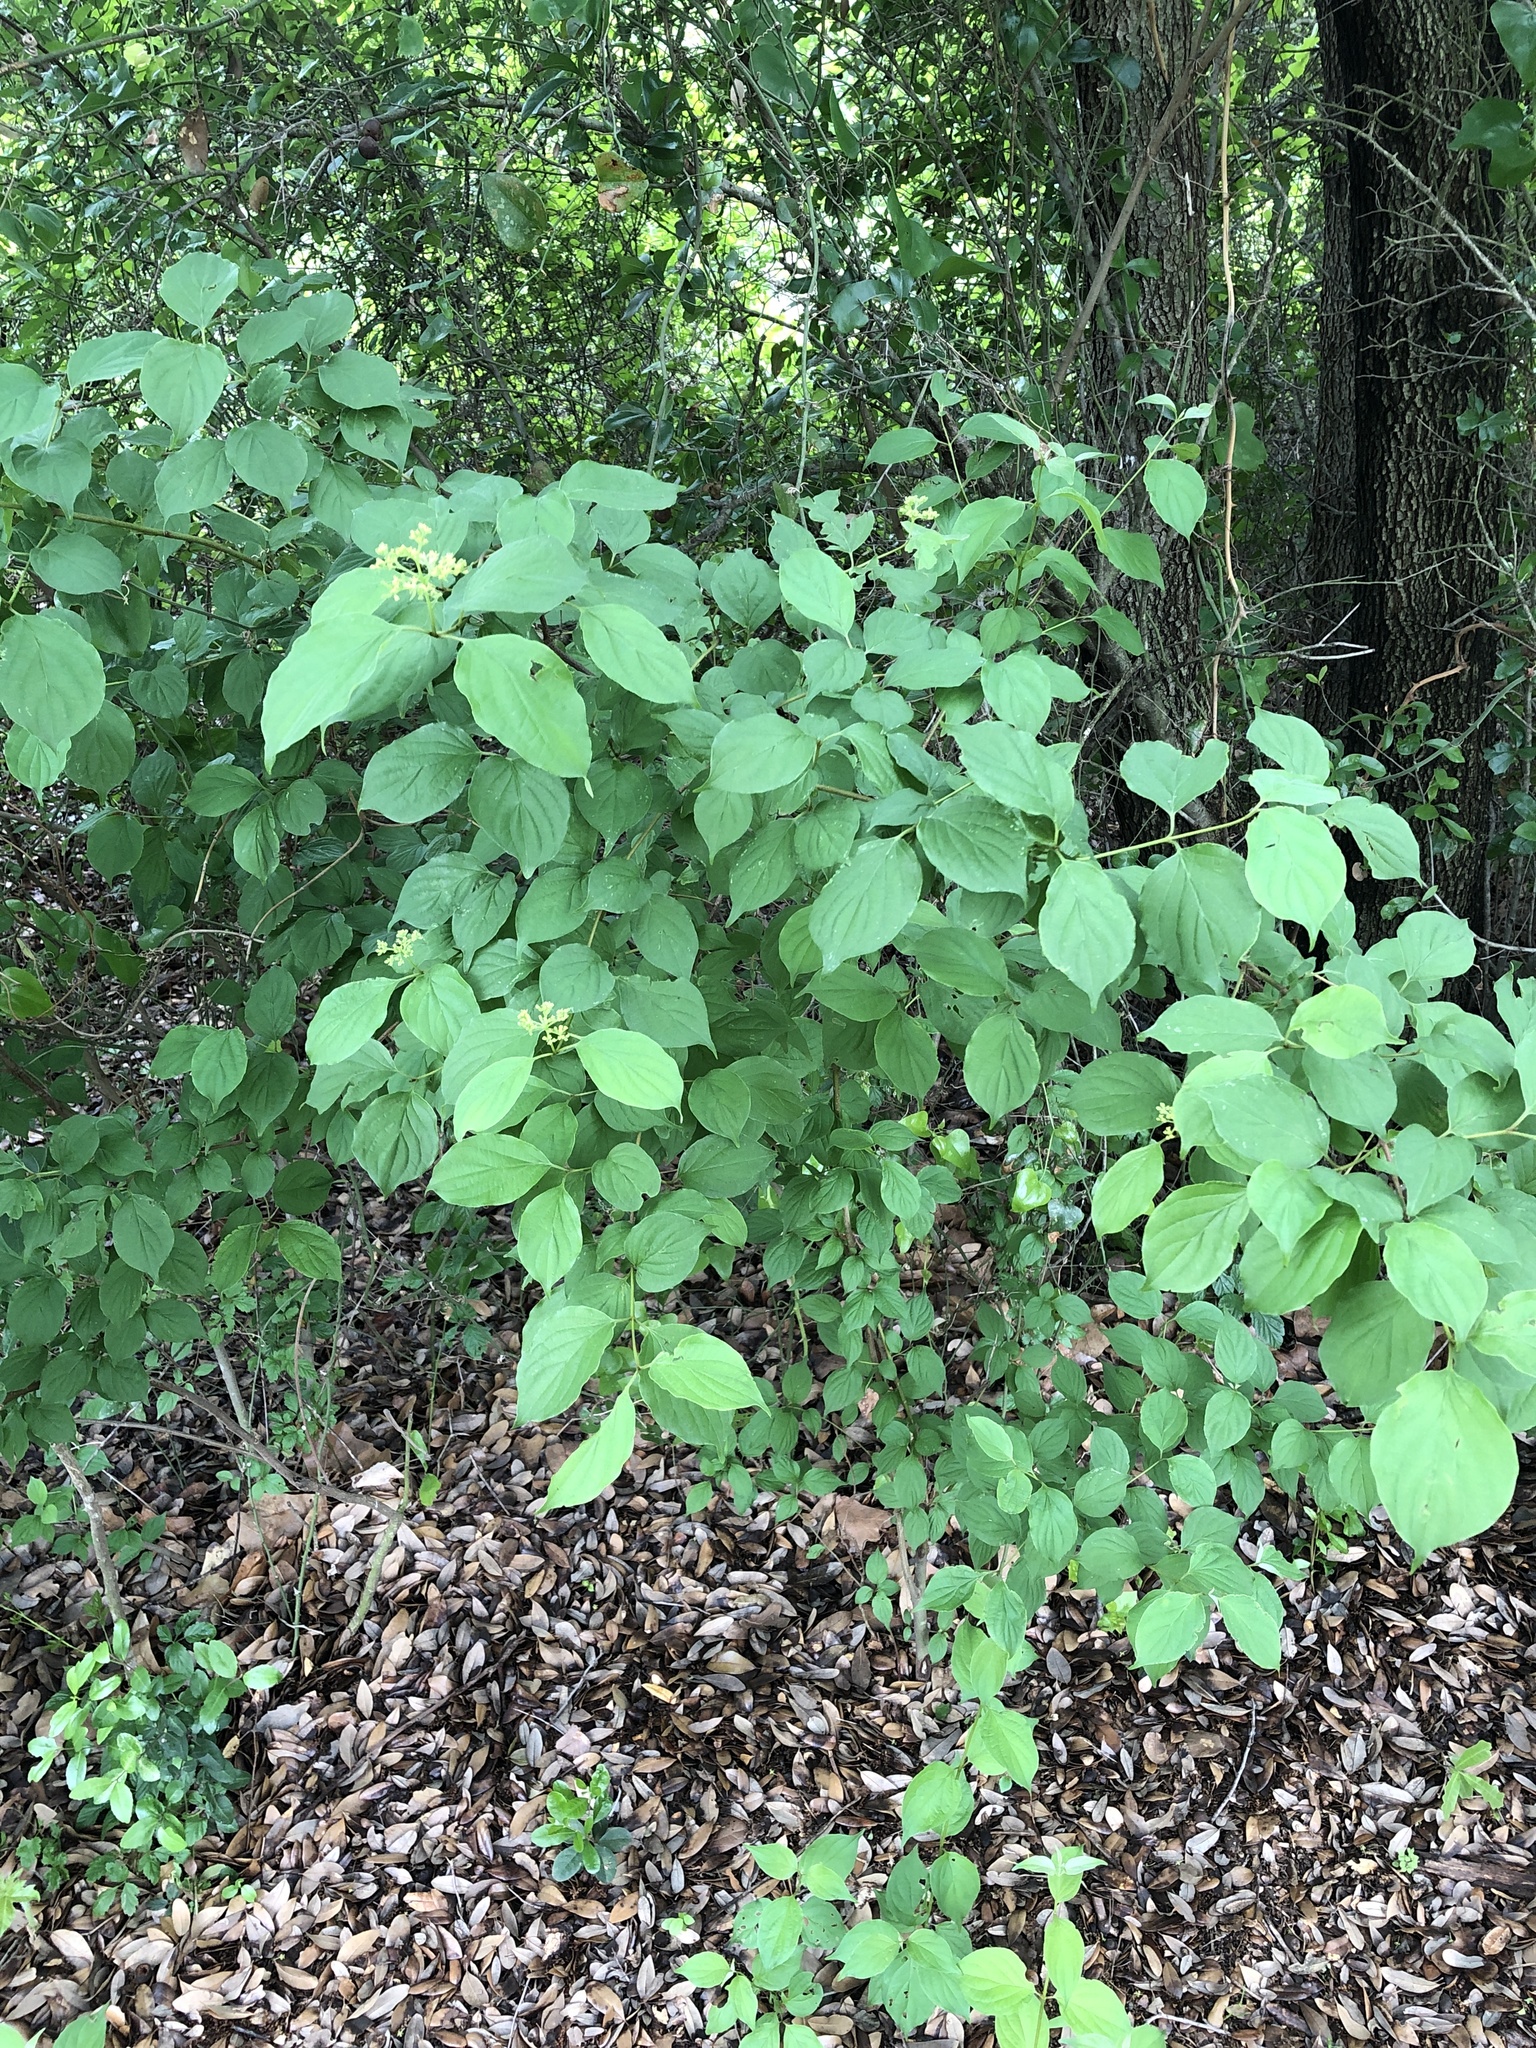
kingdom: Plantae
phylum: Tracheophyta
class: Magnoliopsida
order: Cornales
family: Cornaceae
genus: Cornus
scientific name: Cornus drummondii
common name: Rough-leaf dogwood
